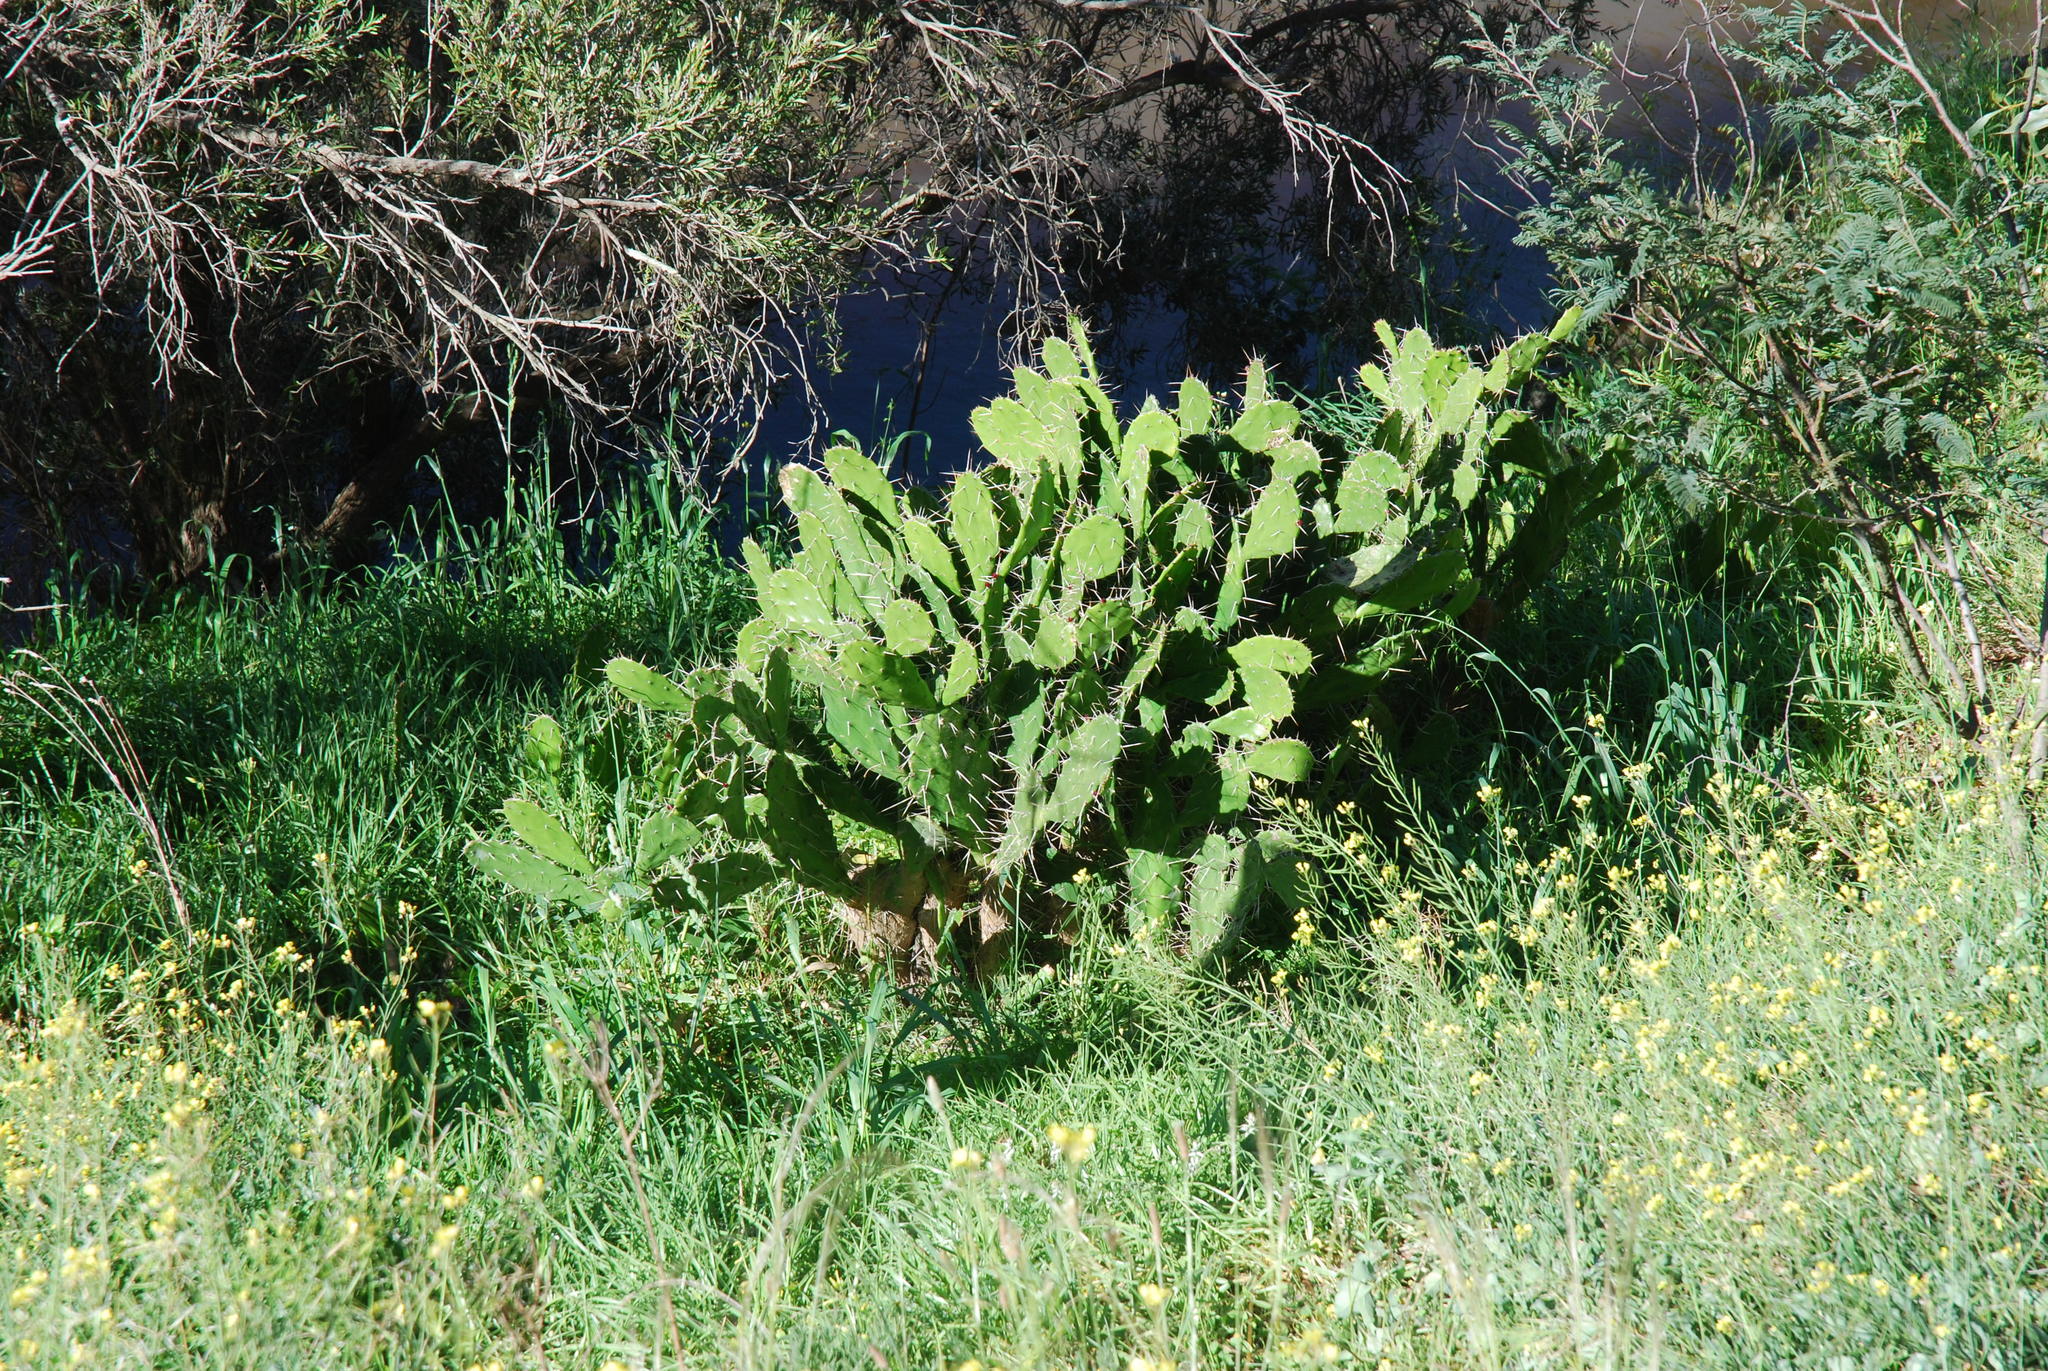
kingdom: Plantae
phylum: Tracheophyta
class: Magnoliopsida
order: Caryophyllales
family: Cactaceae
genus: Opuntia
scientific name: Opuntia monacantha
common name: Common pricklypear
